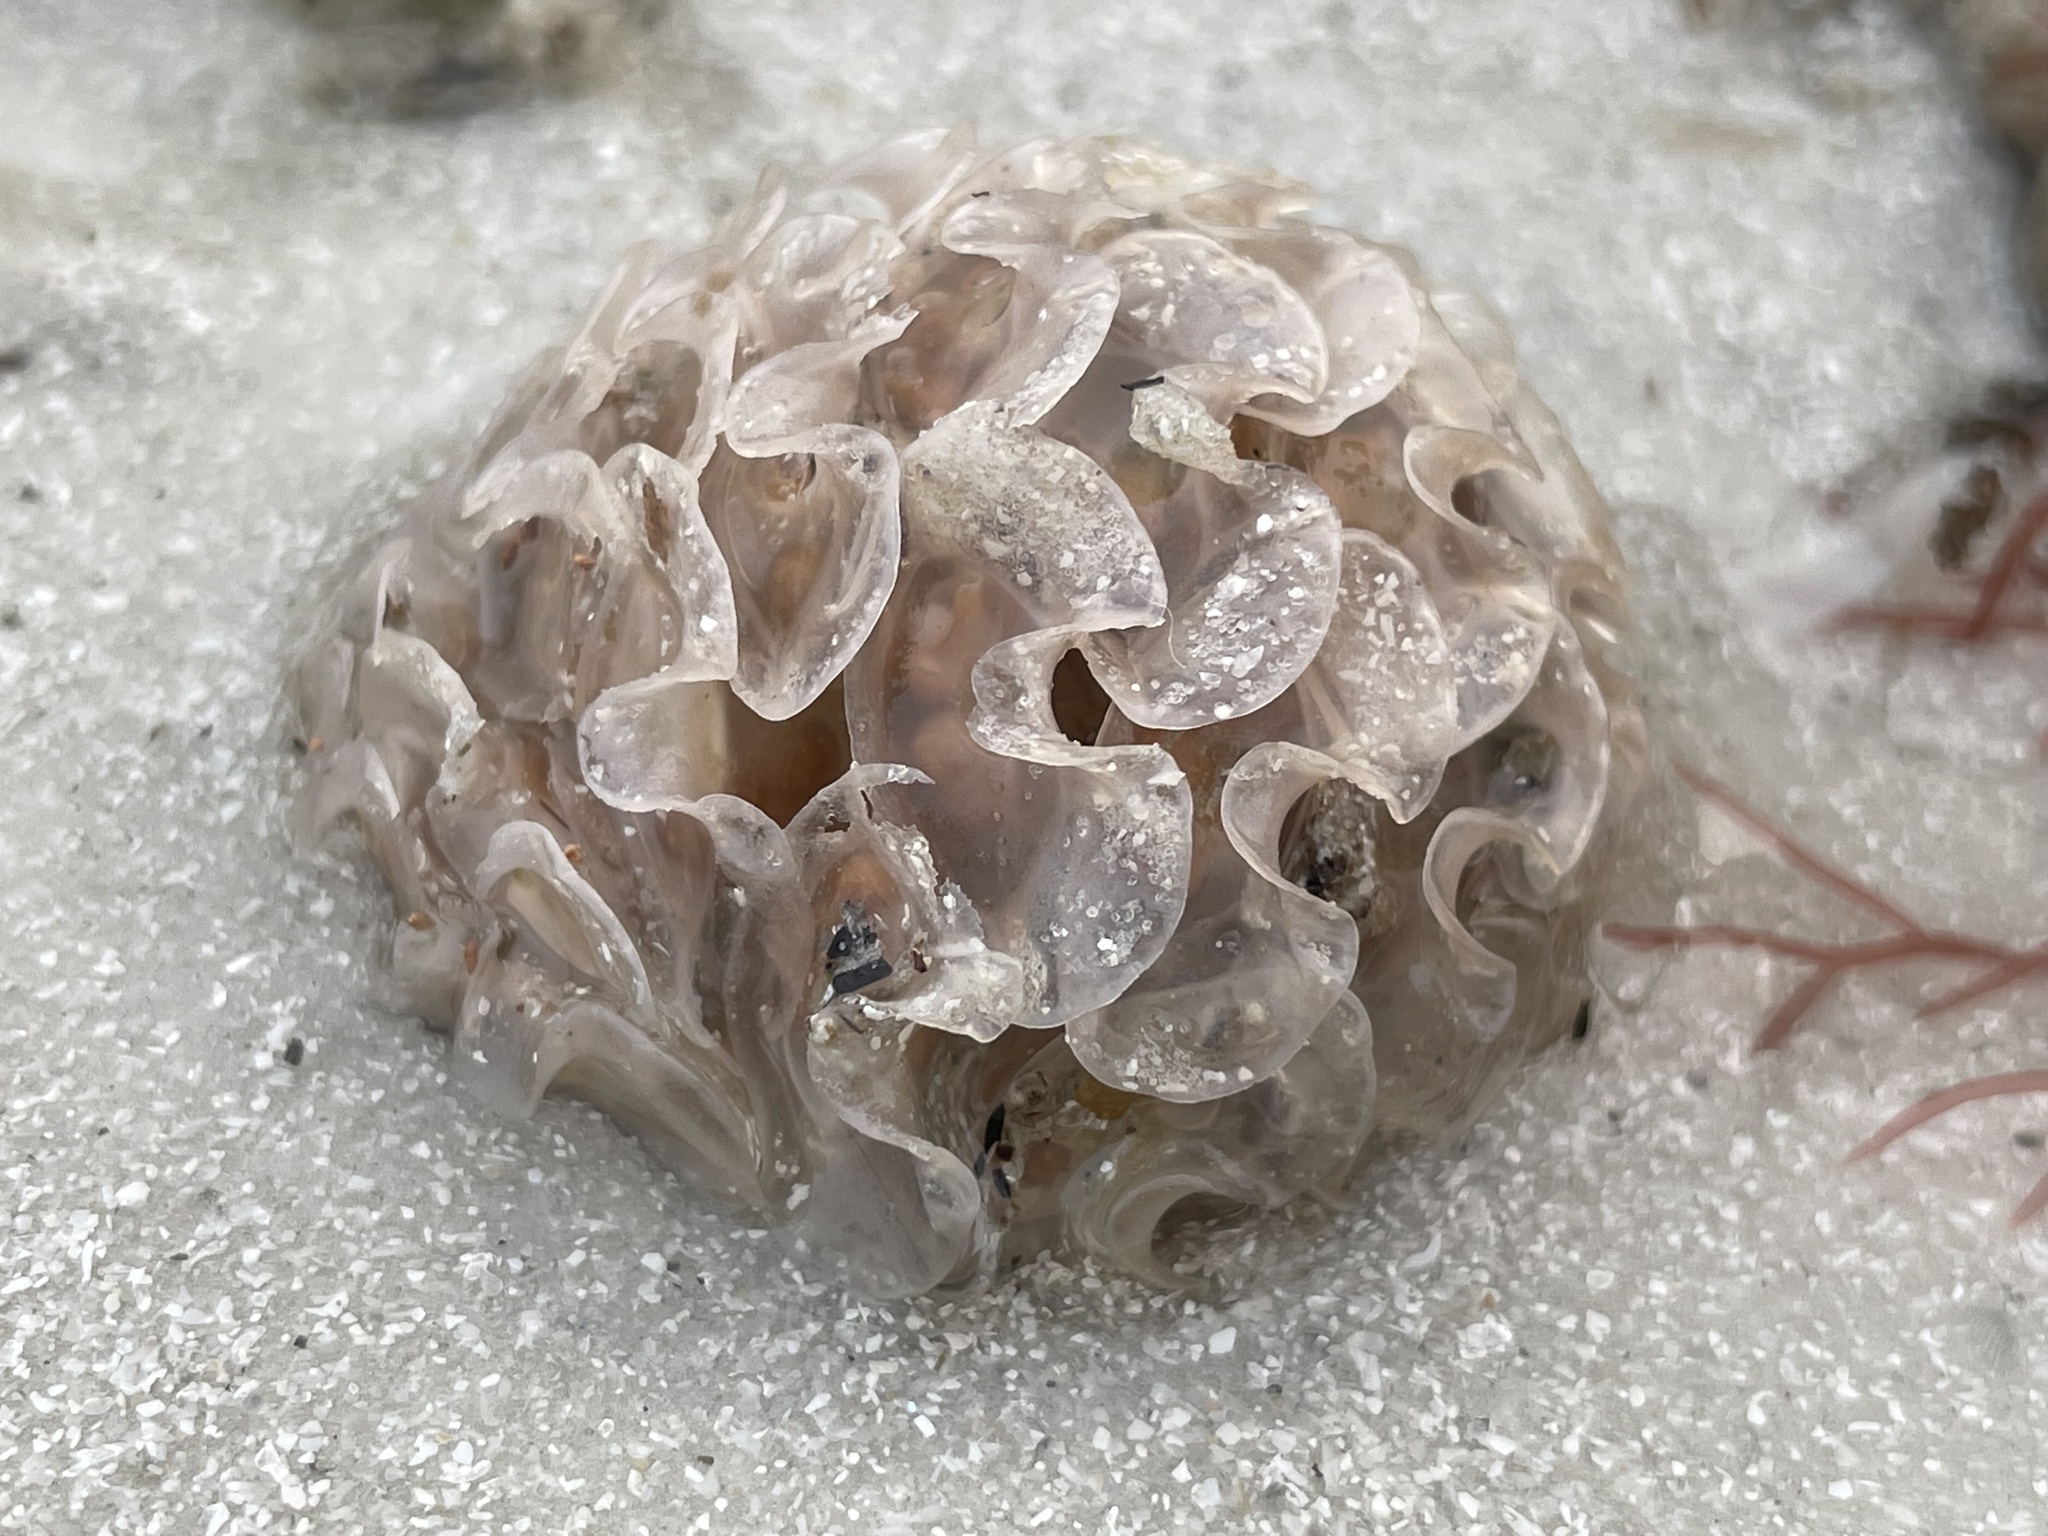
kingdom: Animalia
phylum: Mollusca
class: Gastropoda
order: Neogastropoda
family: Fasciolariidae
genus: Cinctura
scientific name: Cinctura hunteria
